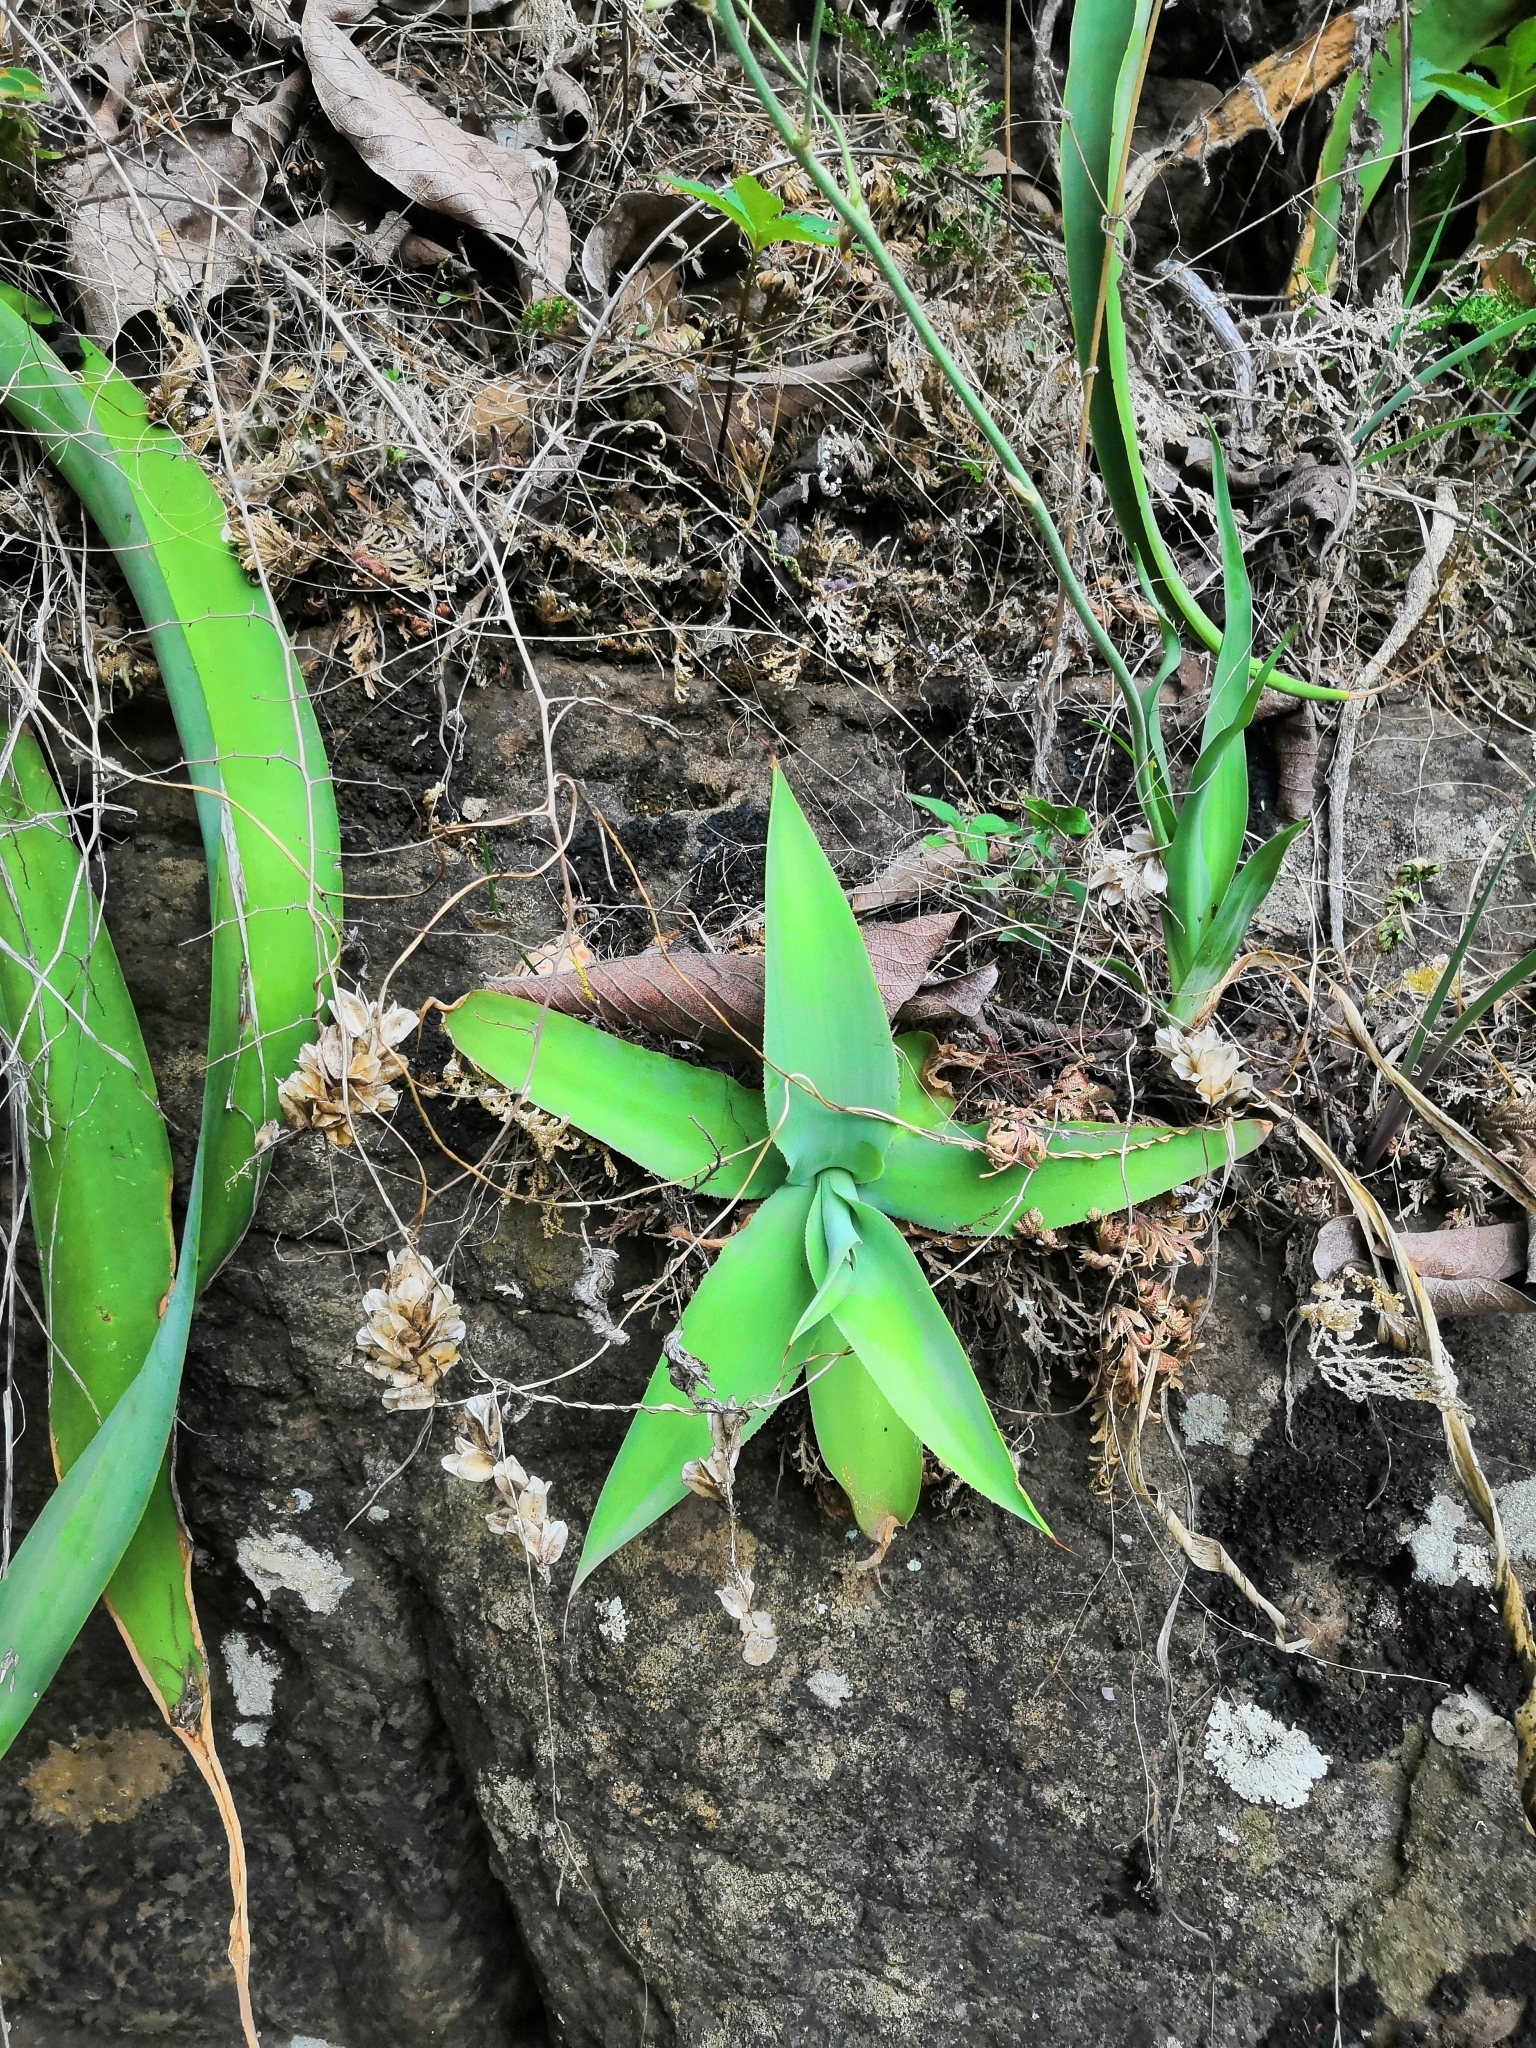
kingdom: Plantae
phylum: Tracheophyta
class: Liliopsida
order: Asparagales
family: Asparagaceae
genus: Agave
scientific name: Agave vilmoriniana
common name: Octopus plant
